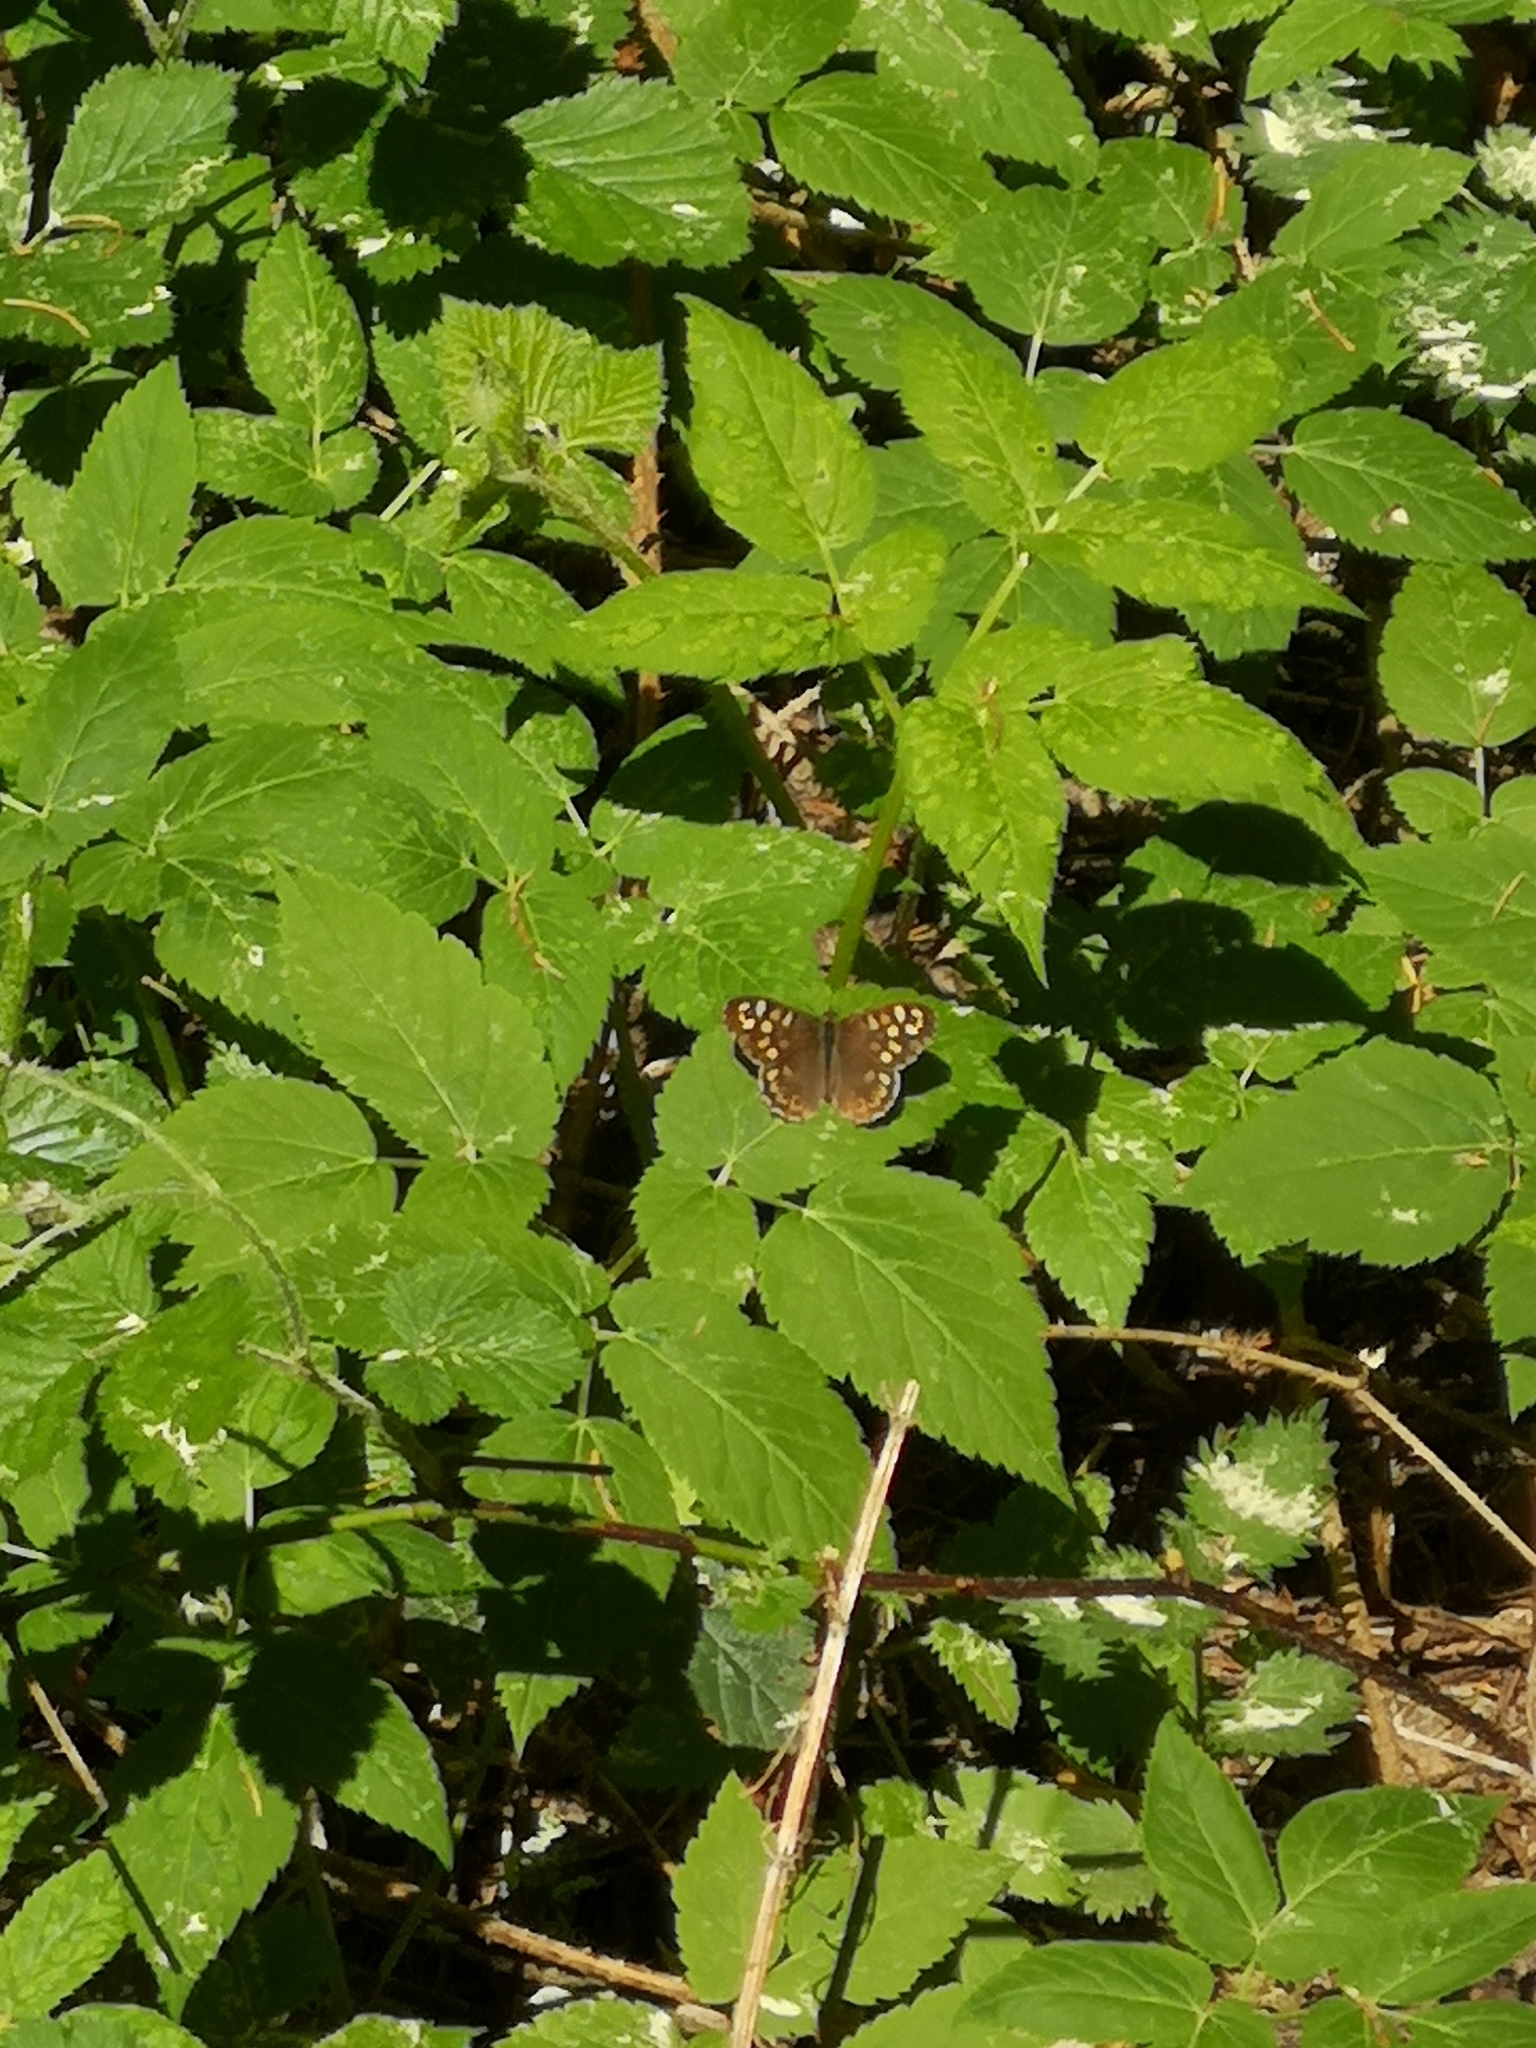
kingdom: Animalia
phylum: Arthropoda
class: Insecta
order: Lepidoptera
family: Nymphalidae
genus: Pararge
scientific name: Pararge aegeria
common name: Speckled wood
